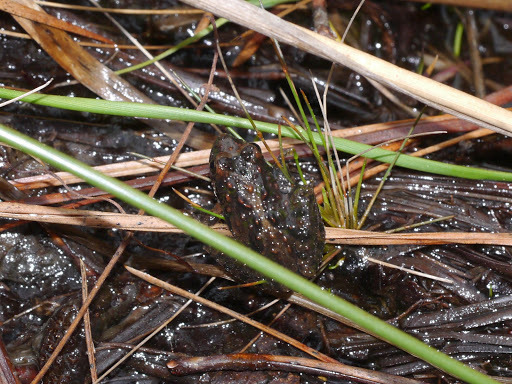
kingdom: Animalia
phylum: Chordata
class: Amphibia
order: Anura
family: Hylidae
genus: Acris
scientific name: Acris crepitans
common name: Northern cricket frog
